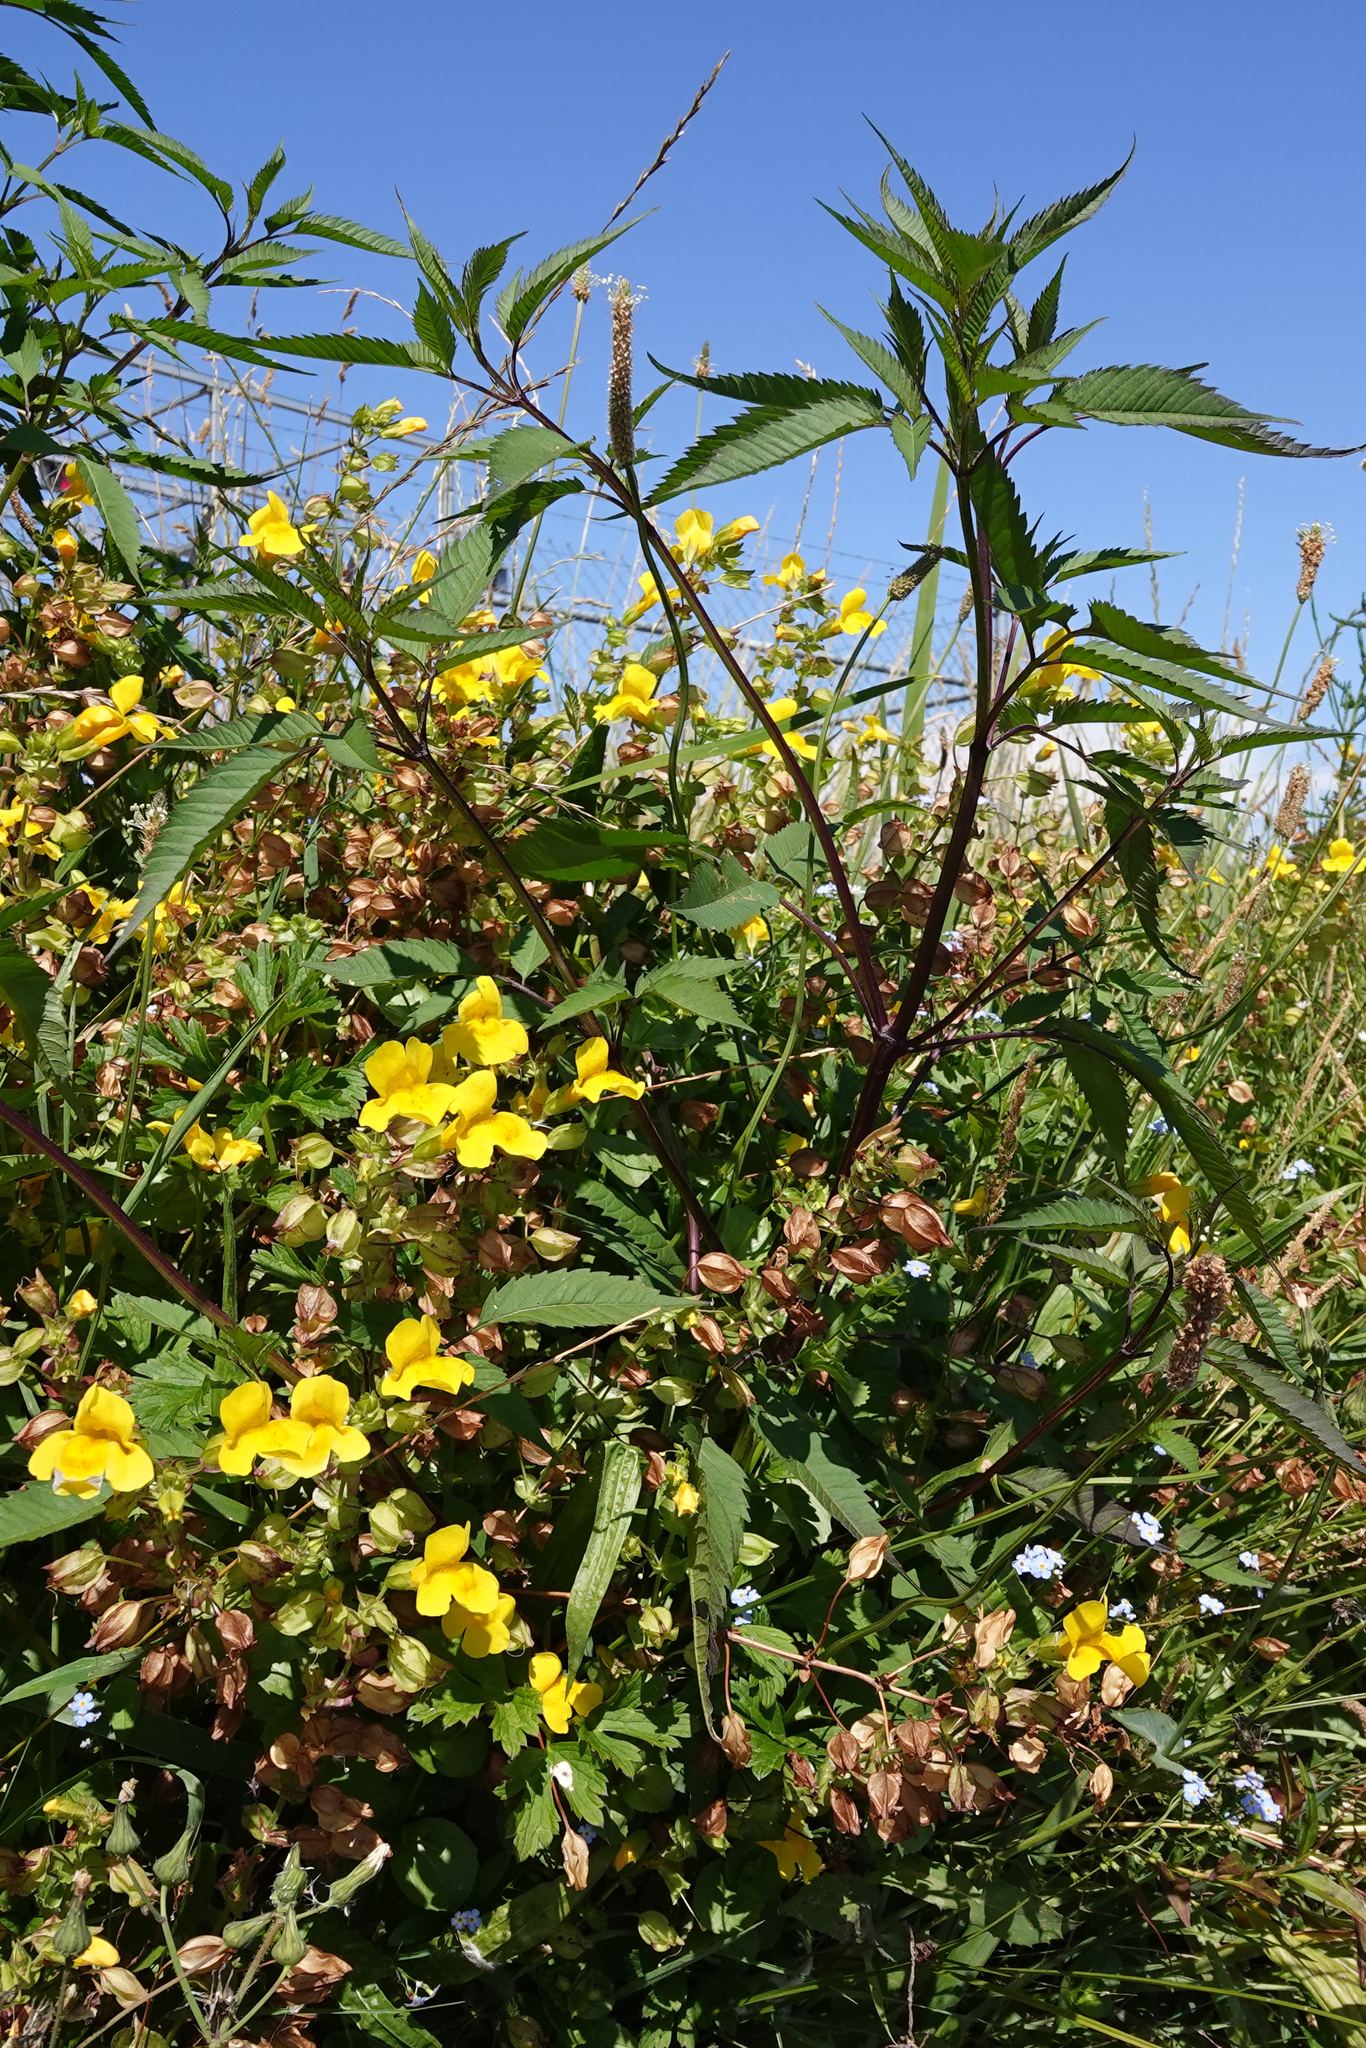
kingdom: Plantae
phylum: Tracheophyta
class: Magnoliopsida
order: Asterales
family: Asteraceae
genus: Bidens
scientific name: Bidens frondosa
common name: Beggarticks
